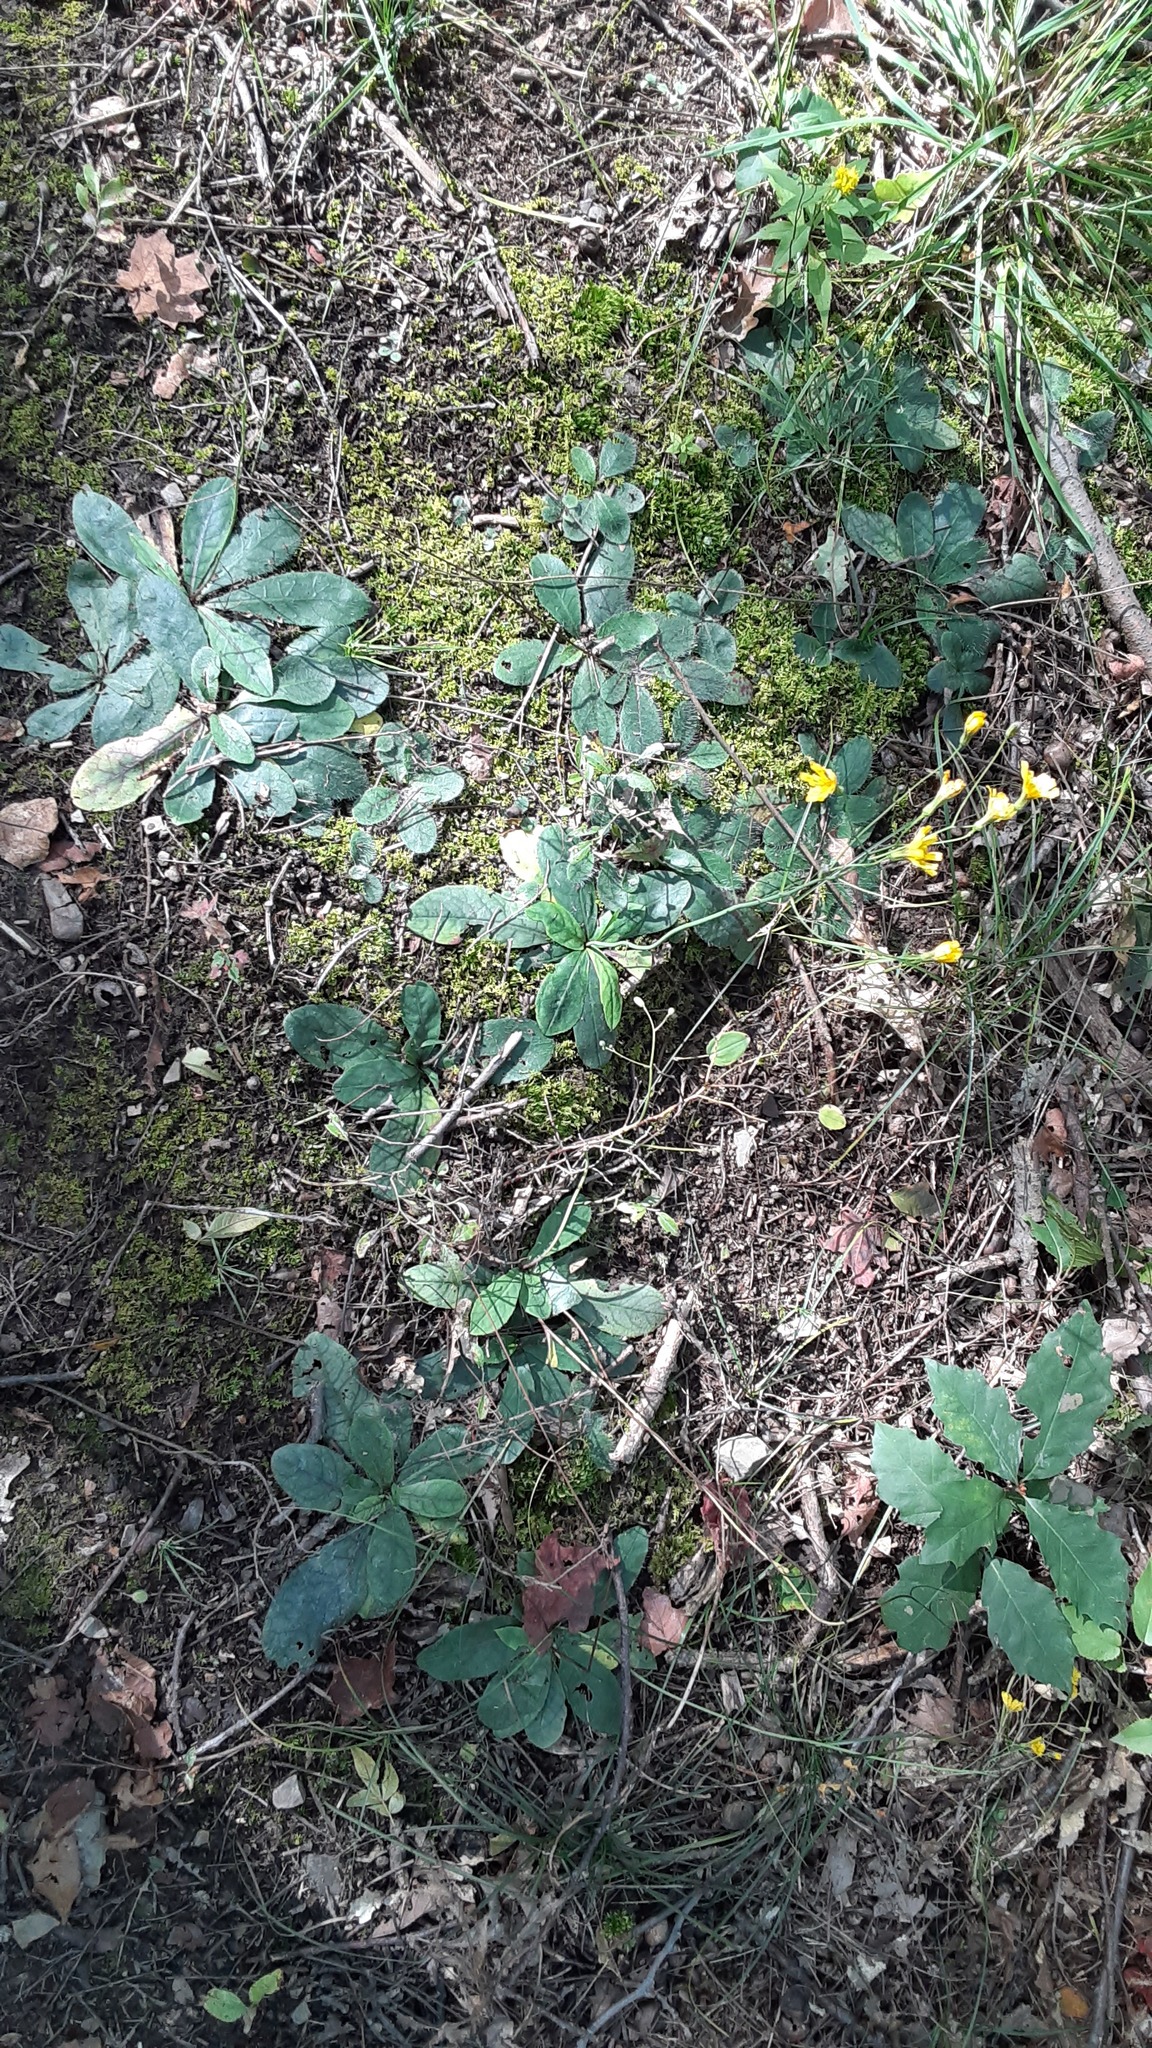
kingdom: Plantae
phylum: Tracheophyta
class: Magnoliopsida
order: Asterales
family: Asteraceae
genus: Hieracium
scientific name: Hieracium venosum
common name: Rattlesnake hawkweed
